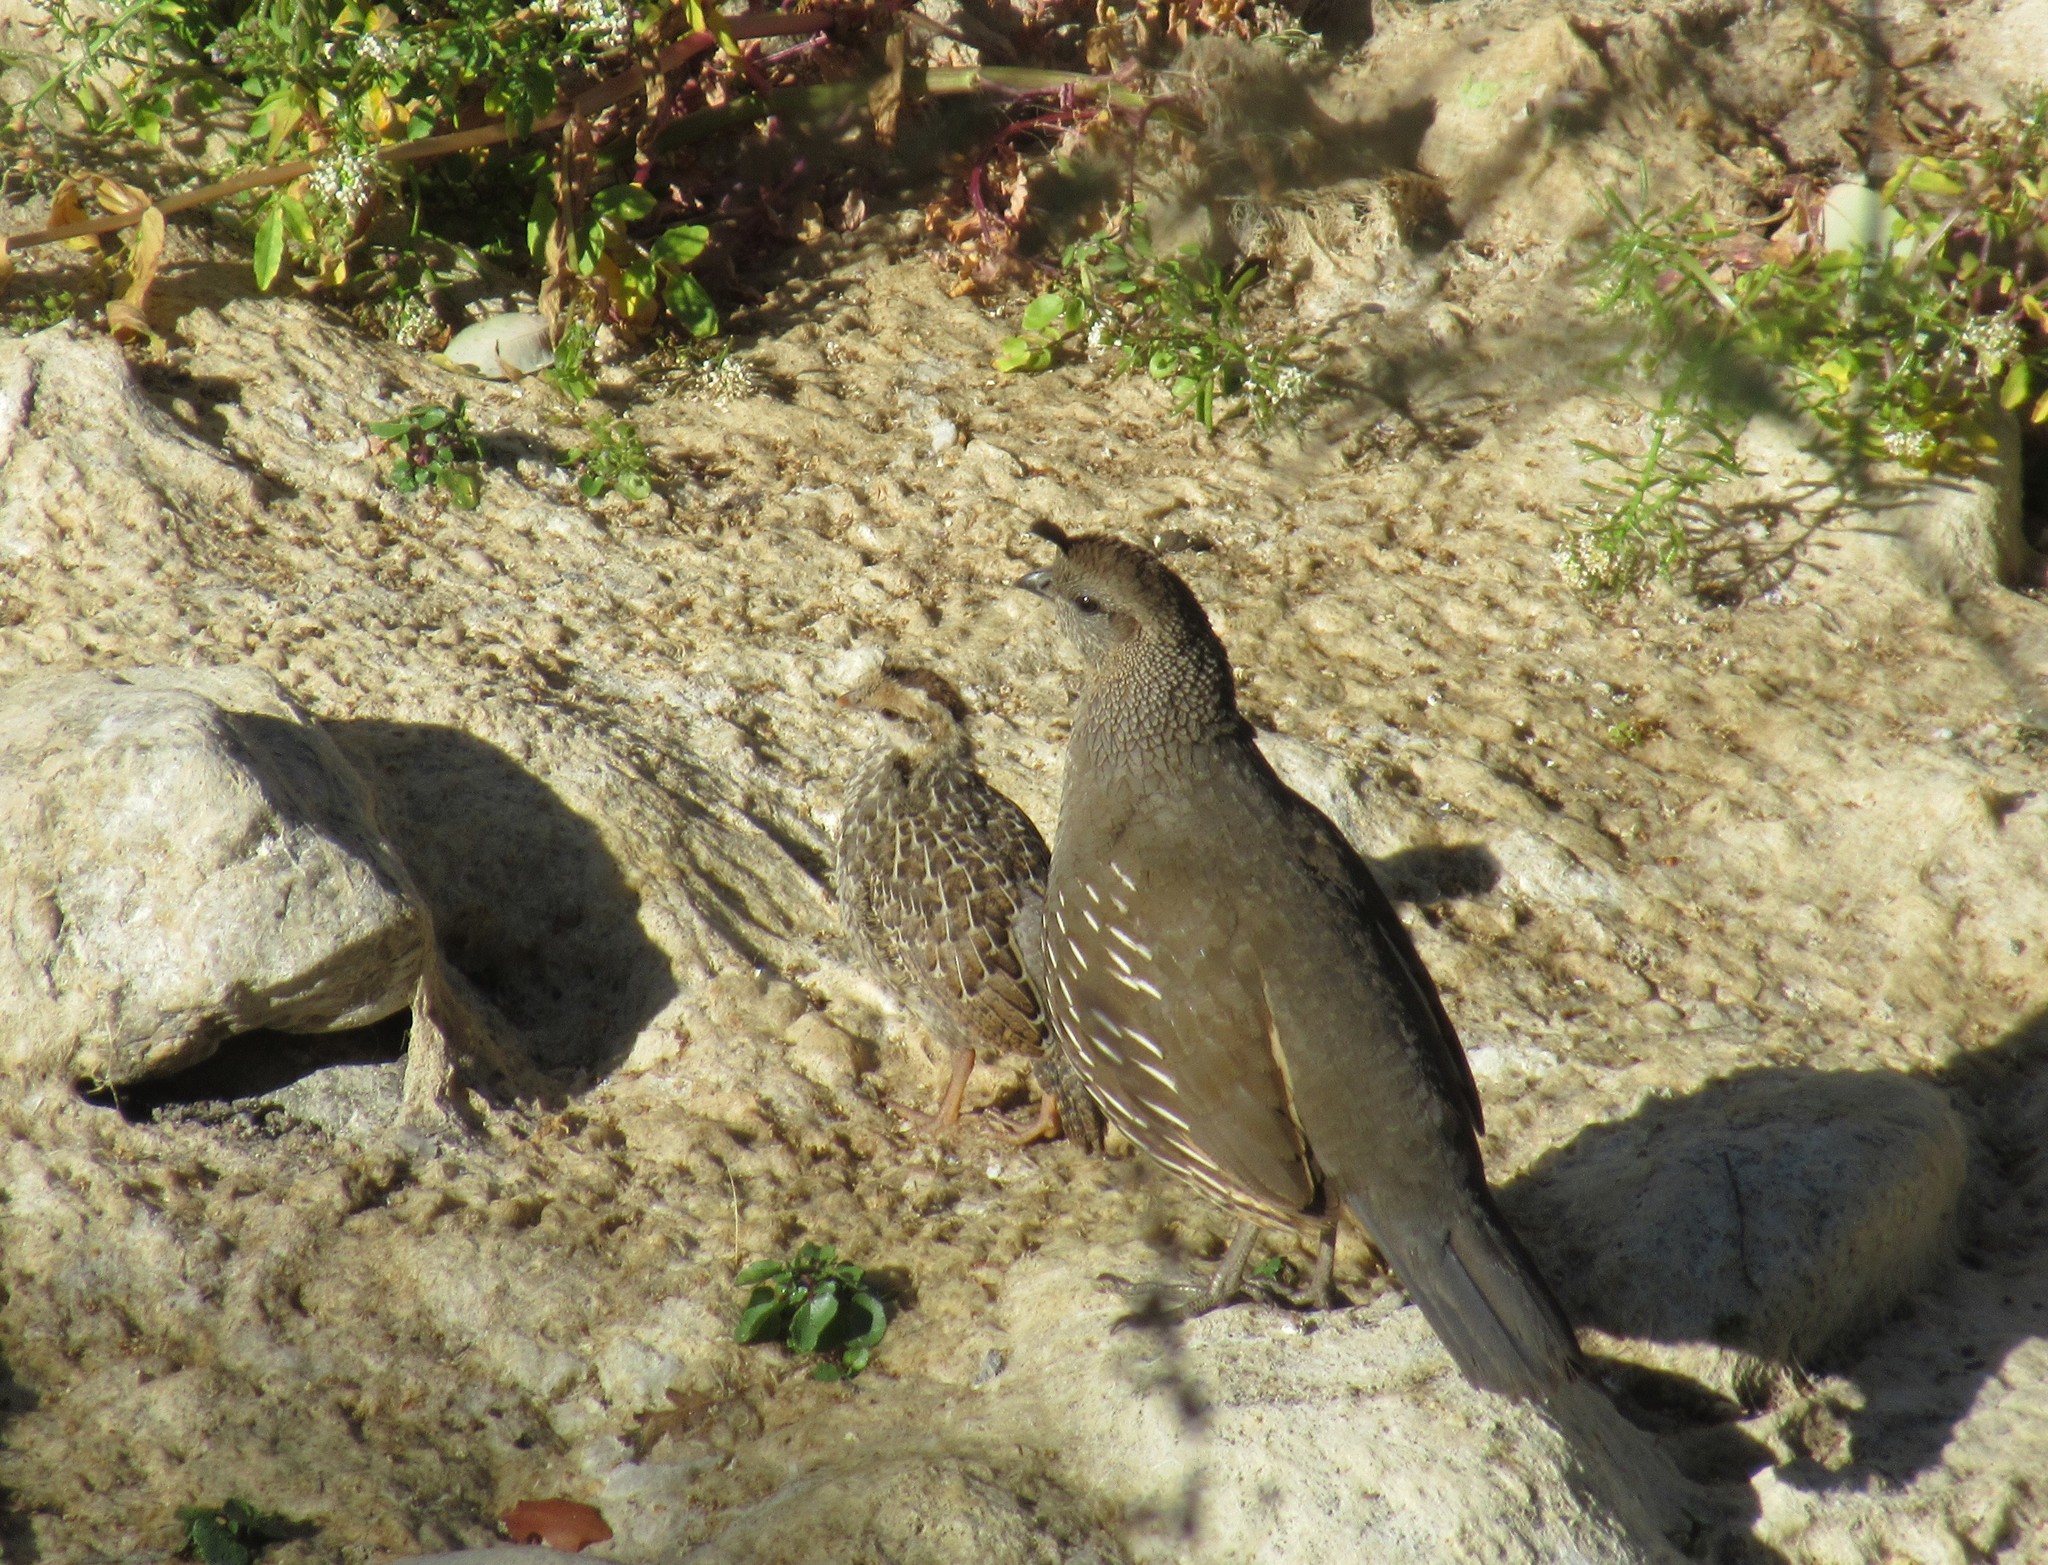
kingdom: Animalia
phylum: Chordata
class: Aves
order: Galliformes
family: Odontophoridae
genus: Callipepla
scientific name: Callipepla californica
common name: California quail
